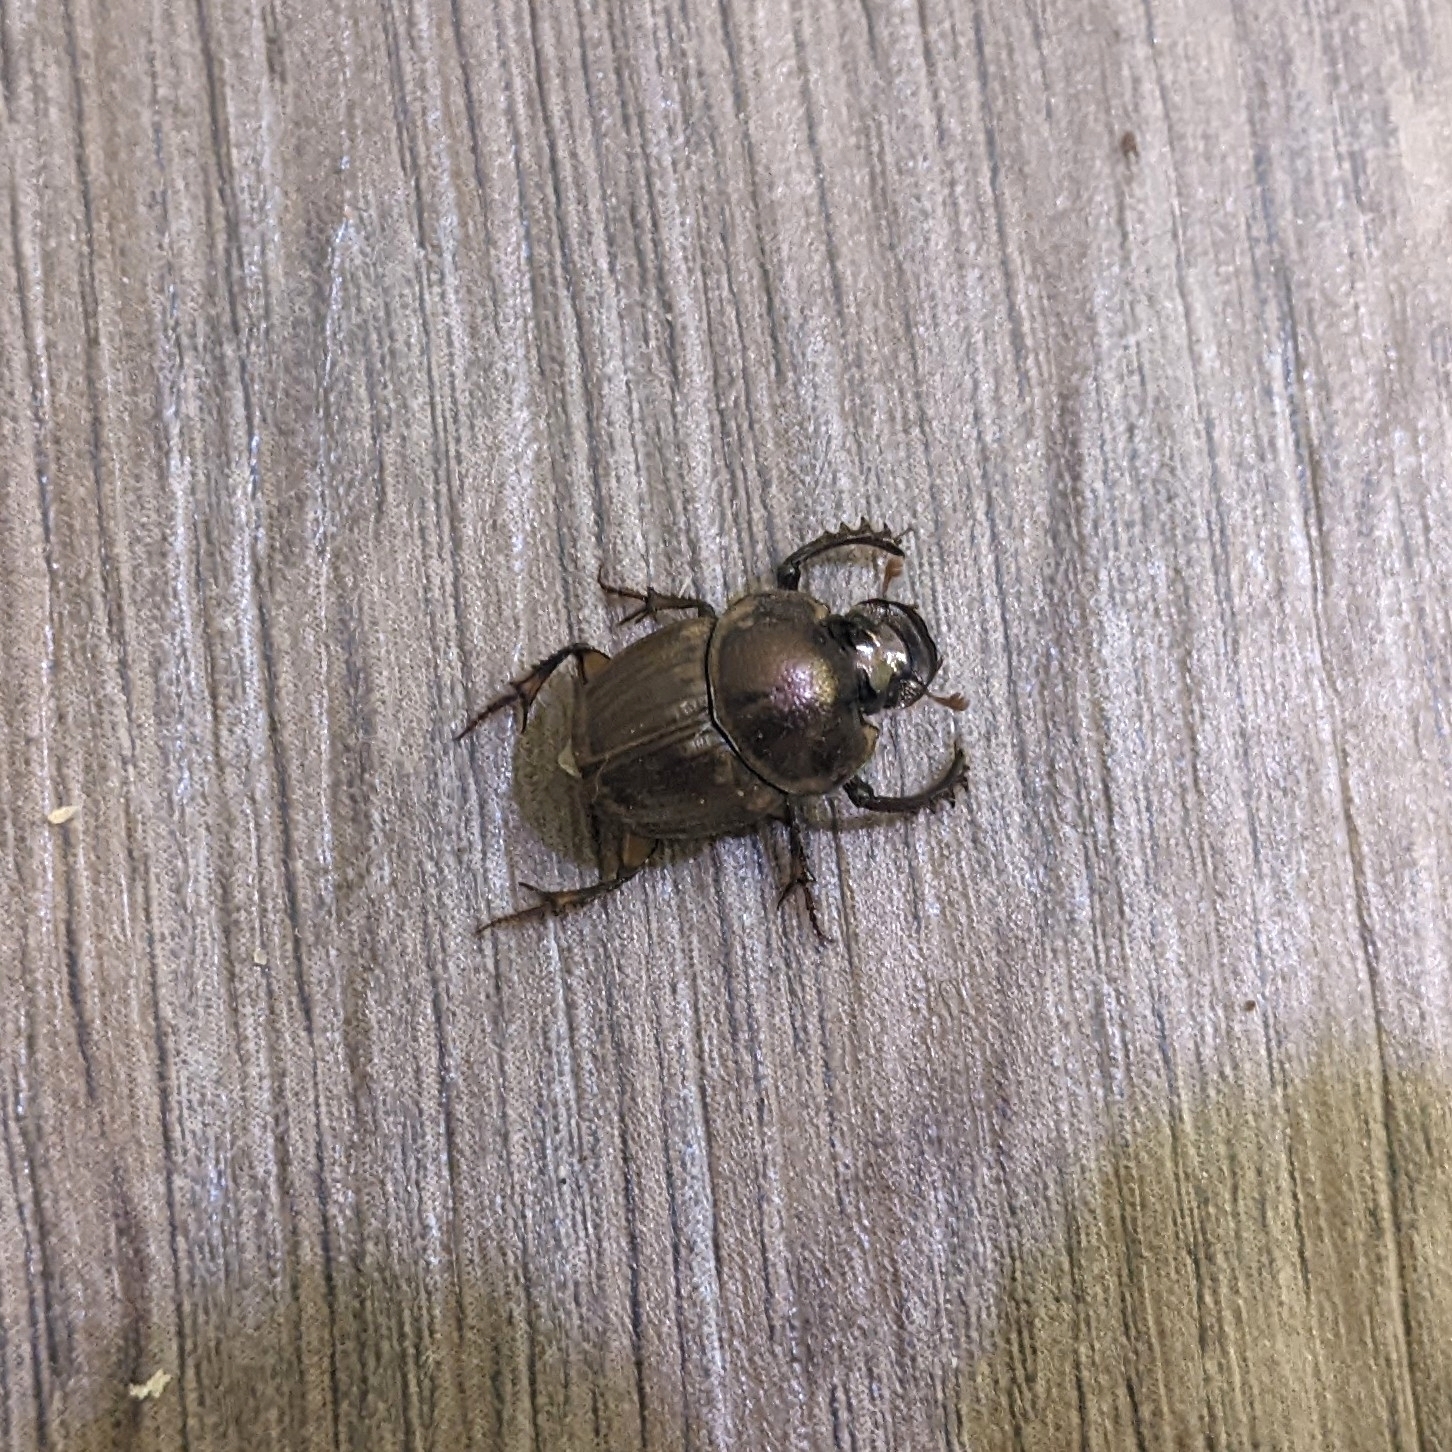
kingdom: Animalia
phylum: Arthropoda
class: Insecta
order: Coleoptera
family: Scarabaeidae
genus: Digitonthophagus
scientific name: Digitonthophagus gazella
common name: Brown dung beetle
